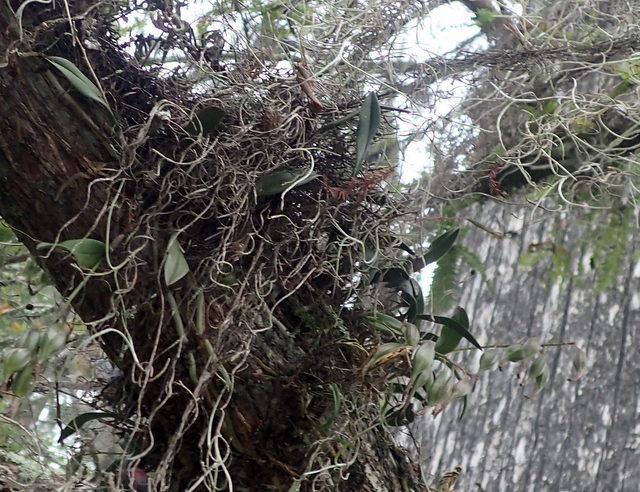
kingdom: Plantae
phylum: Tracheophyta
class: Liliopsida
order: Asparagales
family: Orchidaceae
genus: Epidendrum
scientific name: Epidendrum conopseum
